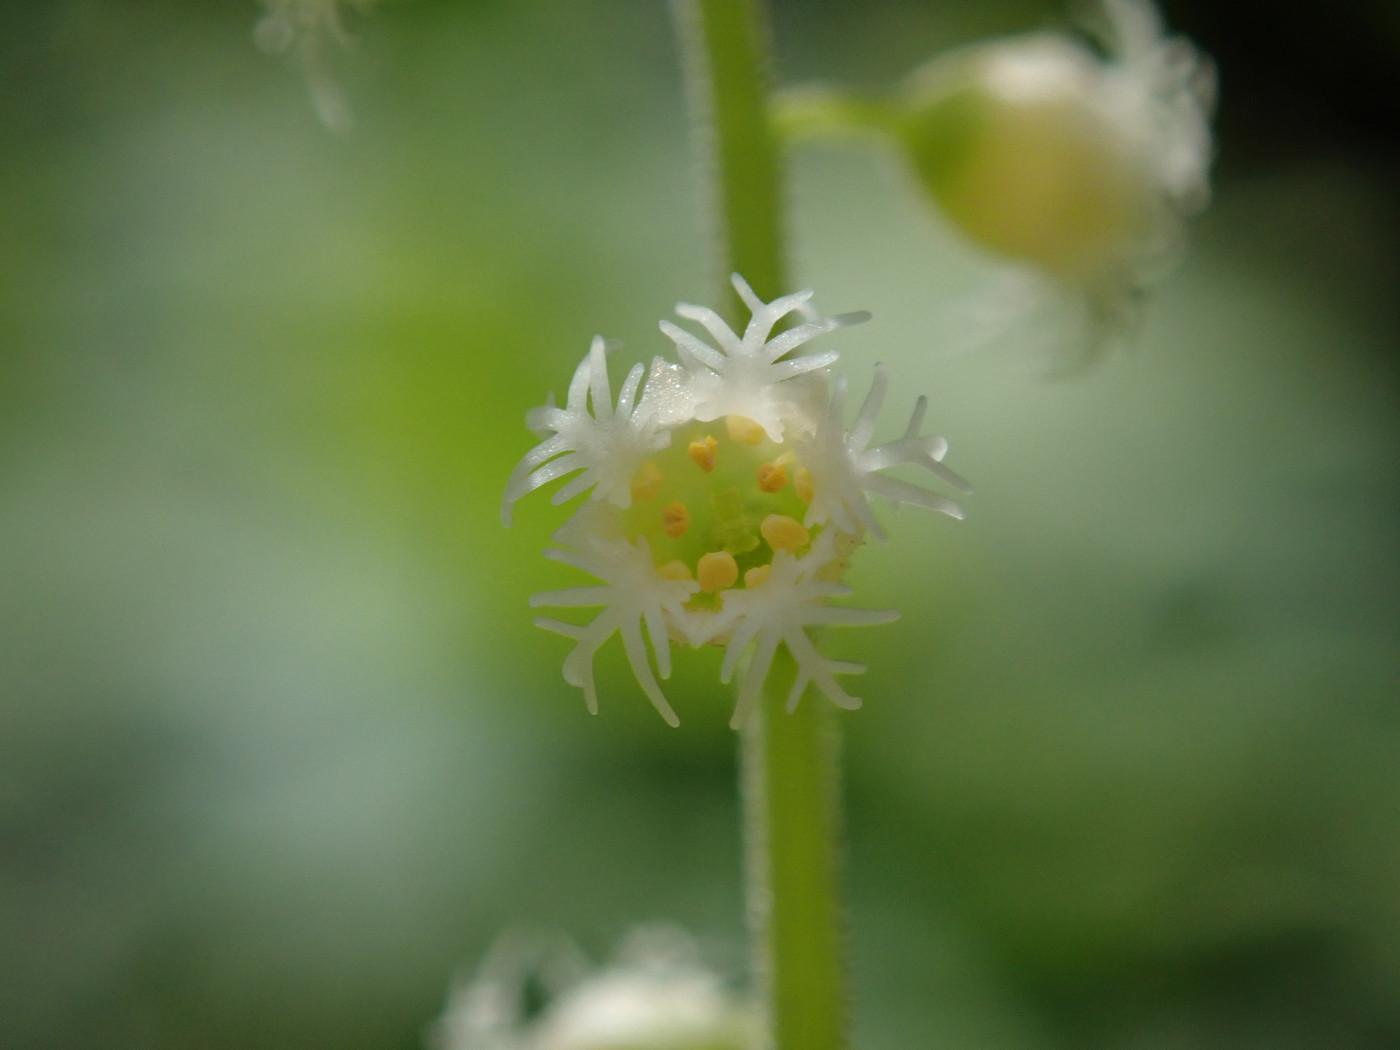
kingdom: Plantae
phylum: Tracheophyta
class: Magnoliopsida
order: Saxifragales
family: Saxifragaceae
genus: Mitella
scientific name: Mitella diphylla
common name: Coolwort
